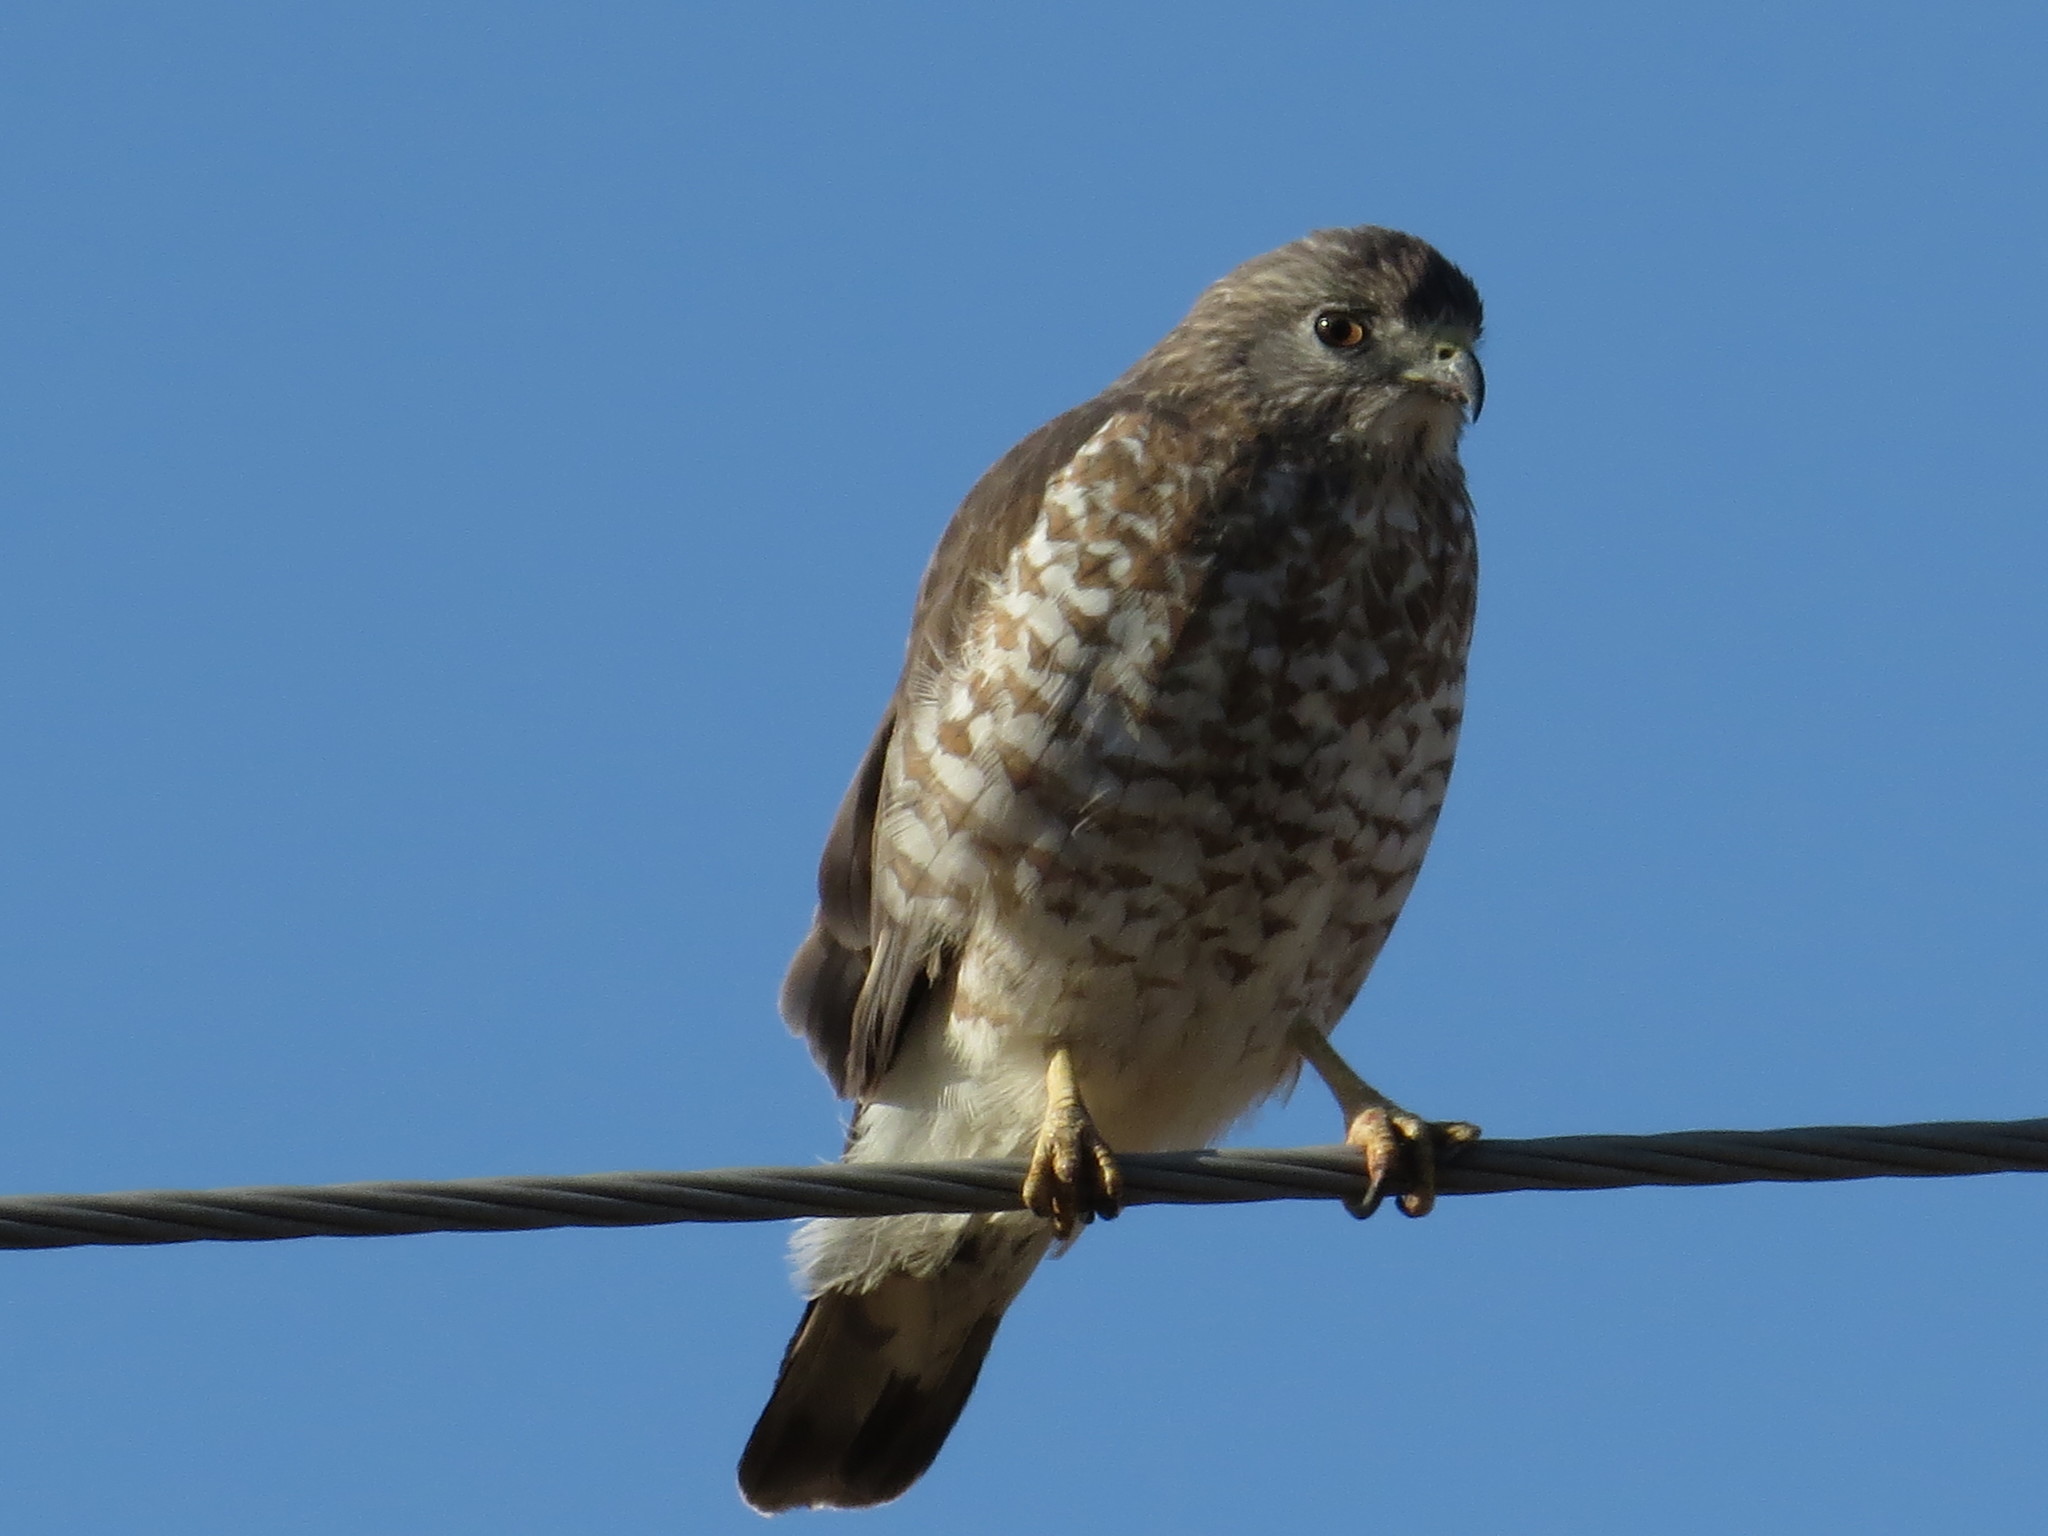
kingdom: Animalia
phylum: Chordata
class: Aves
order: Accipitriformes
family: Accipitridae
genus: Buteo
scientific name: Buteo platypterus
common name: Broad-winged hawk
